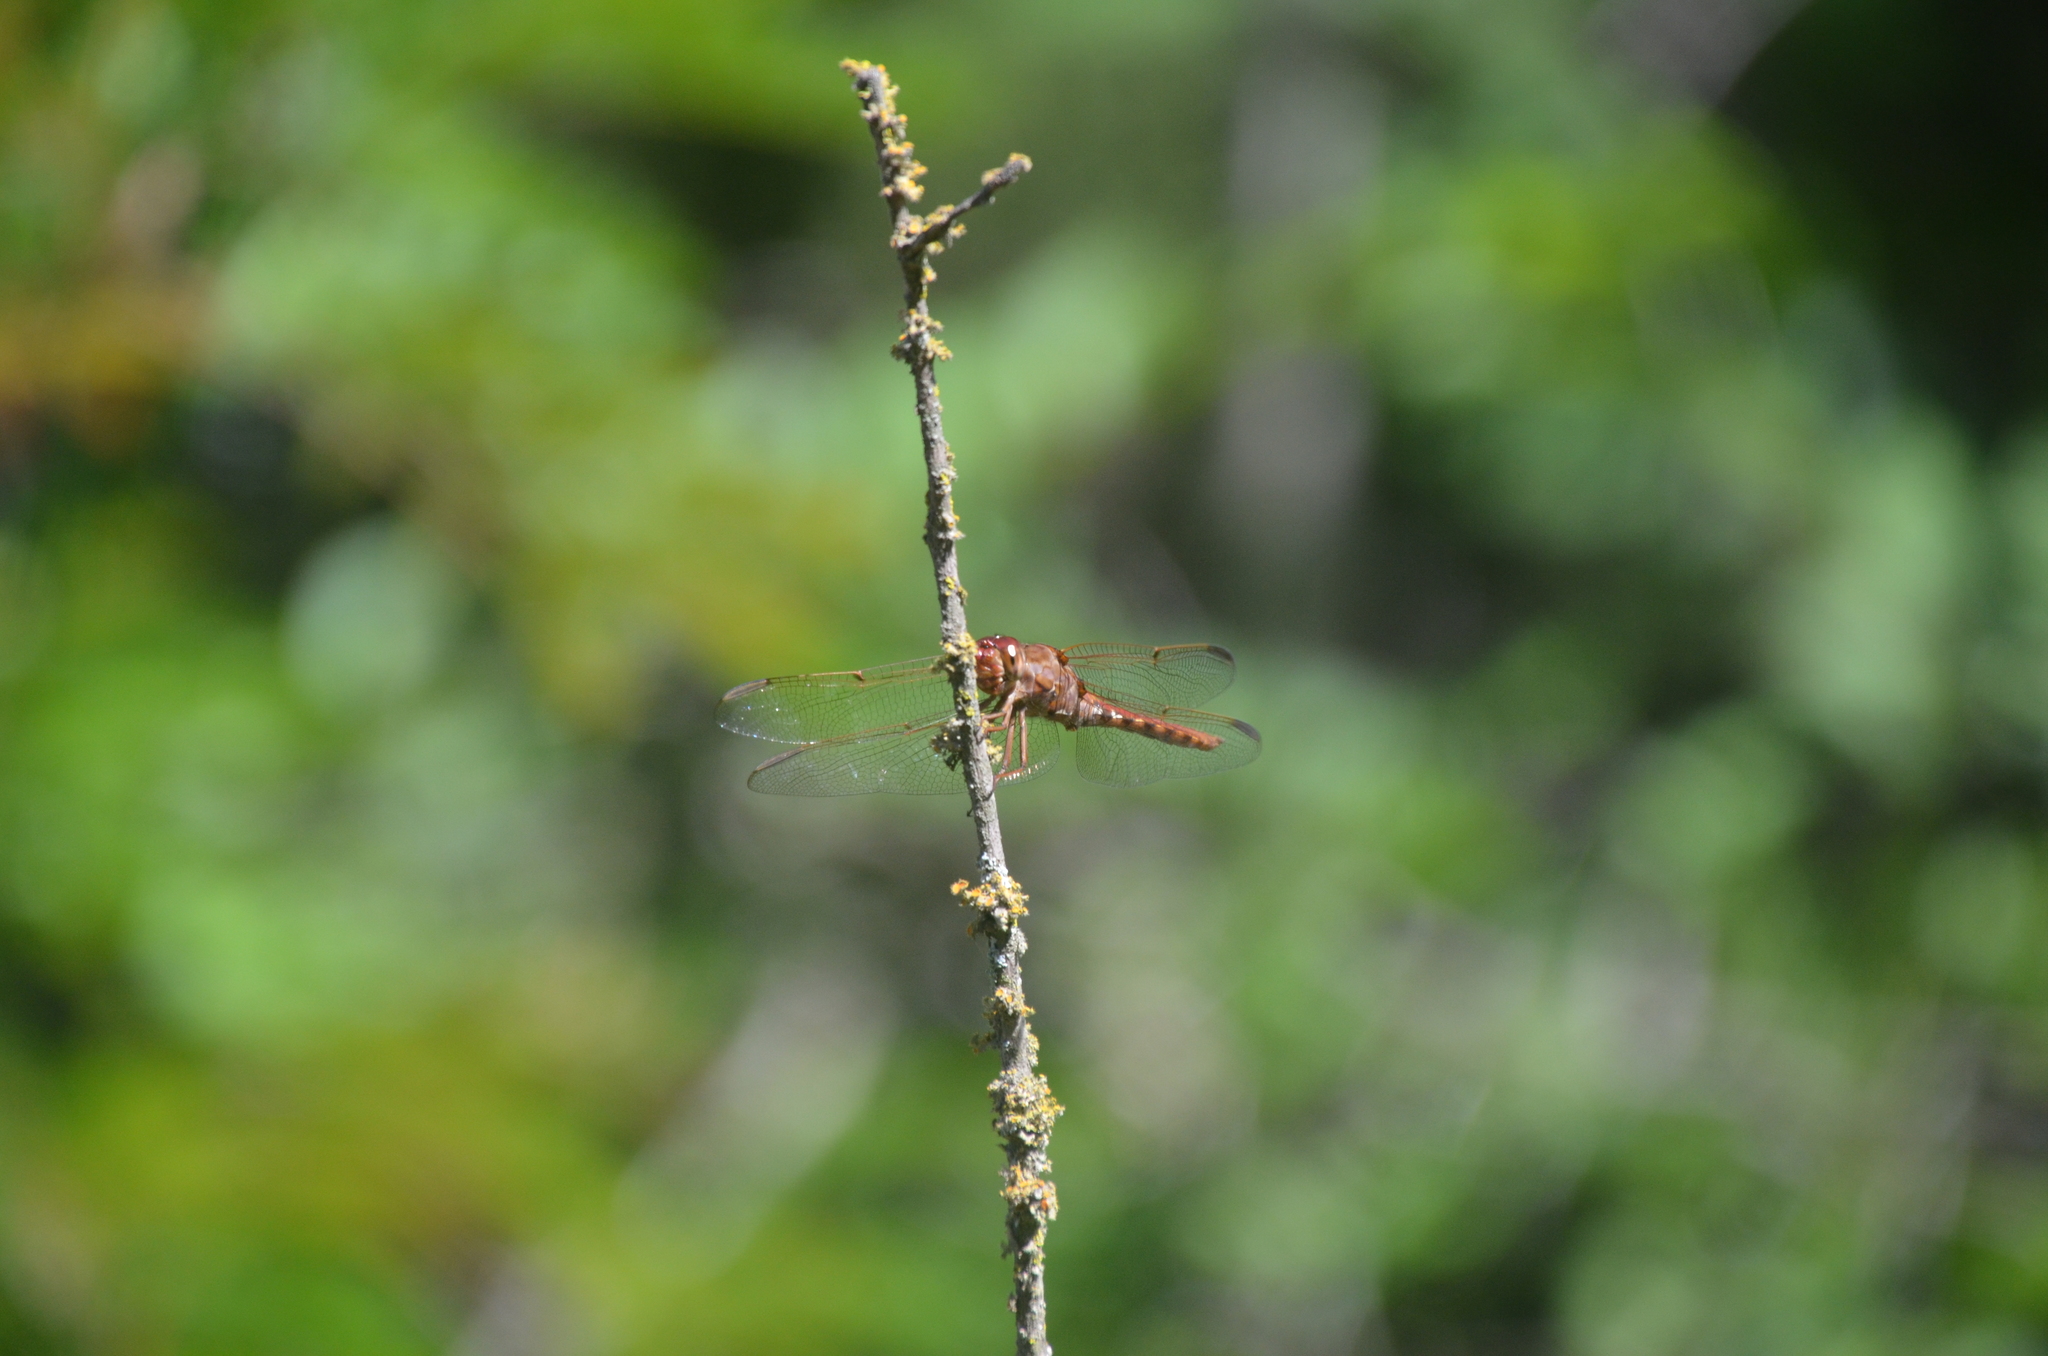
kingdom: Animalia
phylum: Arthropoda
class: Insecta
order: Odonata
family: Libellulidae
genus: Orthemis
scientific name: Orthemis nodiplaga
